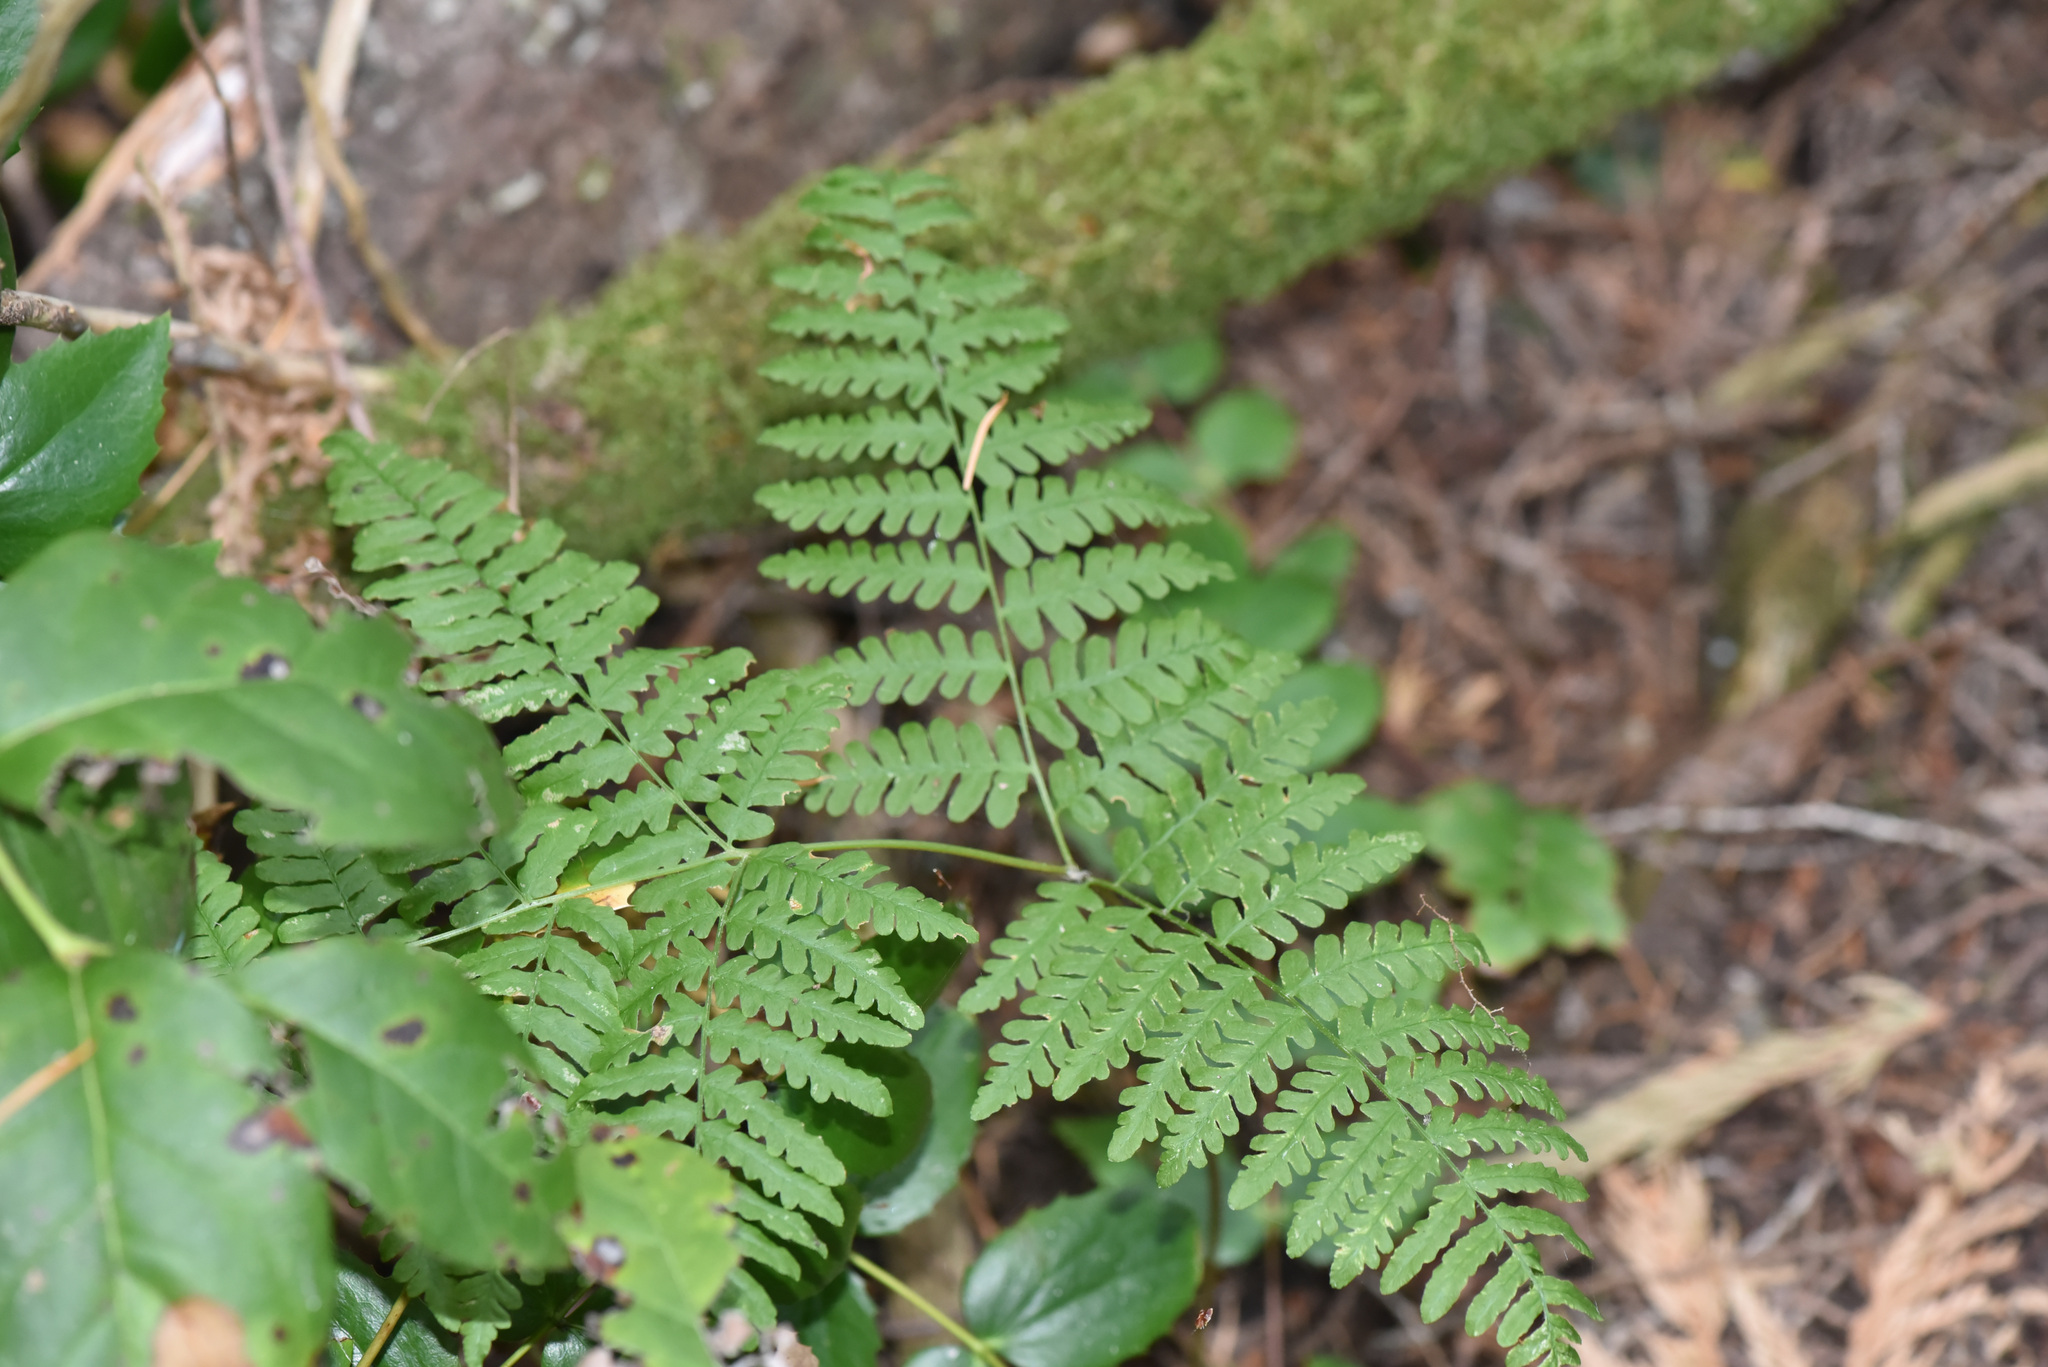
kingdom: Plantae
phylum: Tracheophyta
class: Polypodiopsida
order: Polypodiales
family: Dennstaedtiaceae
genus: Pteridium
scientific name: Pteridium aquilinum
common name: Bracken
